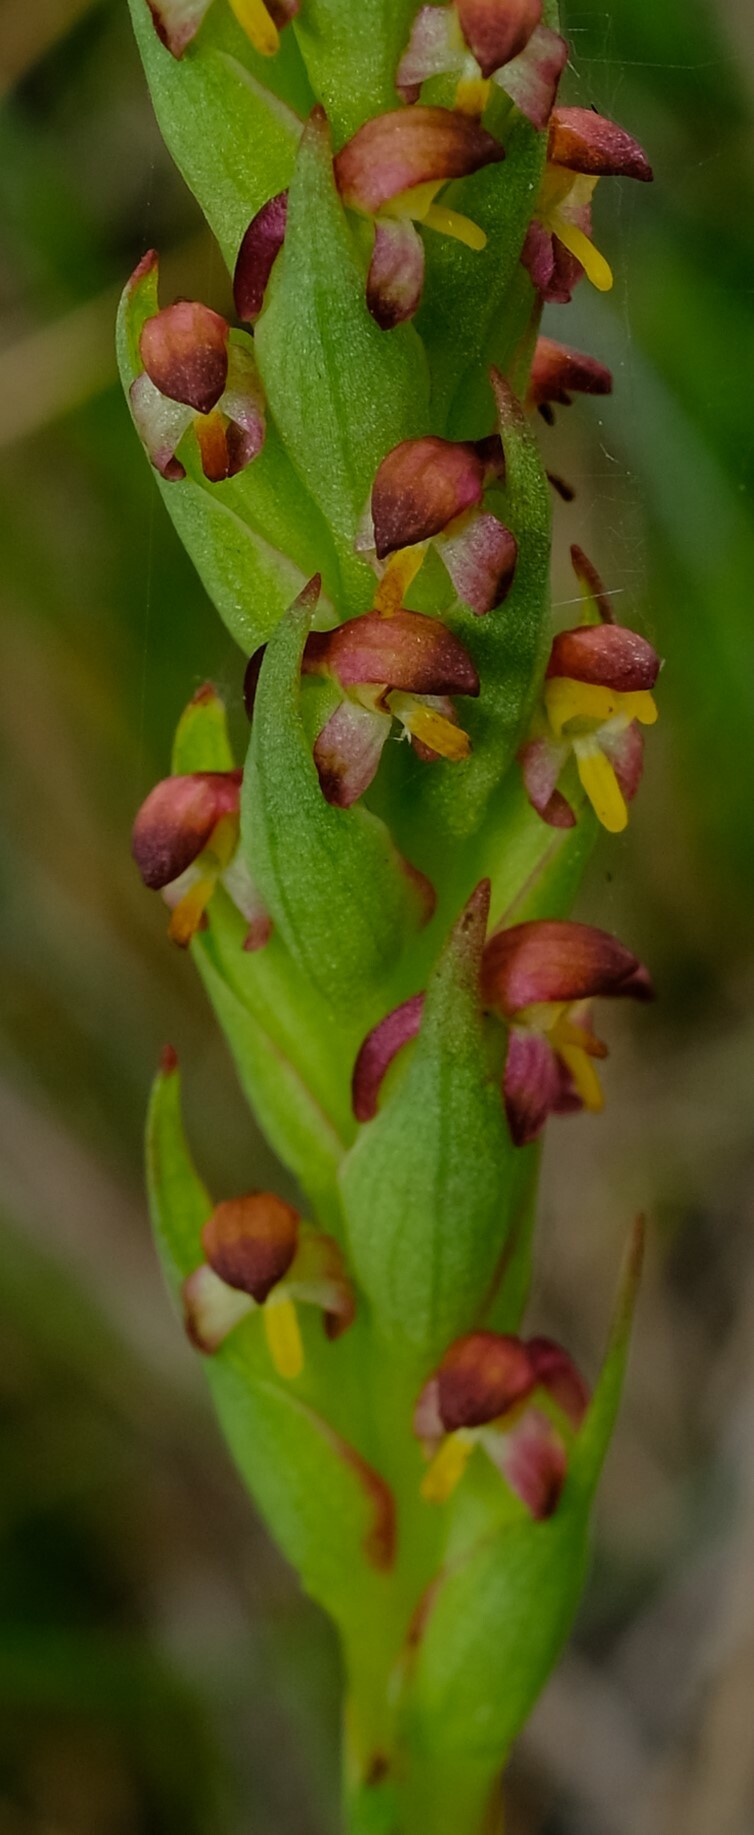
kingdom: Plantae
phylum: Tracheophyta
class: Liliopsida
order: Asparagales
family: Orchidaceae
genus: Disa
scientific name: Disa bracteata
